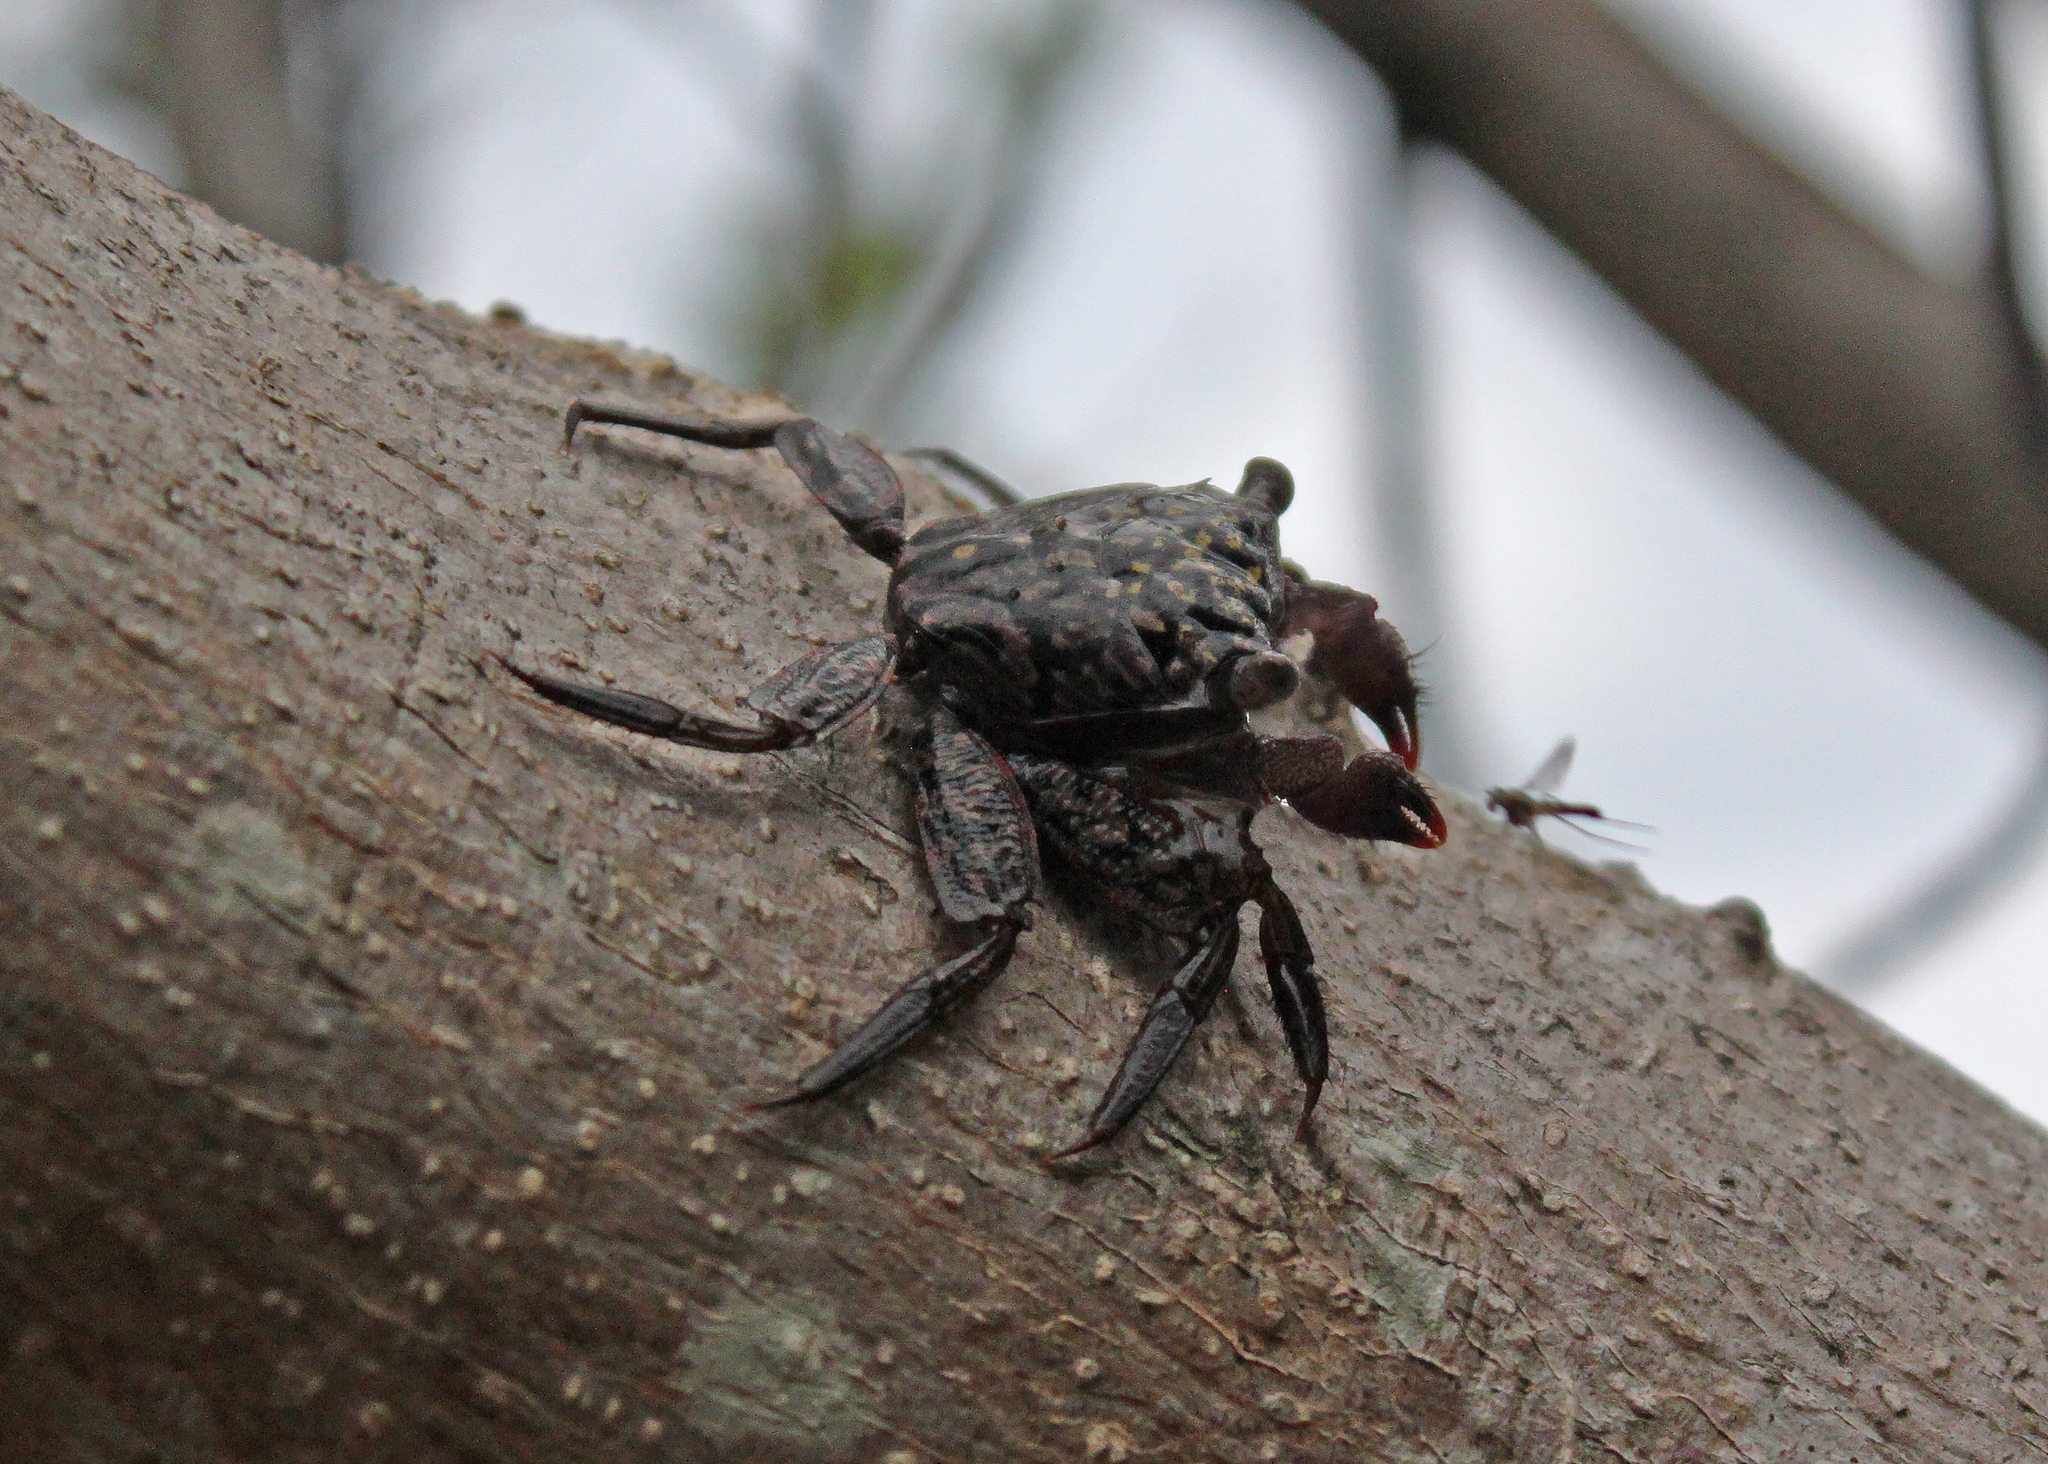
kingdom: Animalia
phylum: Arthropoda
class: Malacostraca
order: Decapoda
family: Sesarmidae
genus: Aratus
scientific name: Aratus pisonii
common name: Mangrove crab
